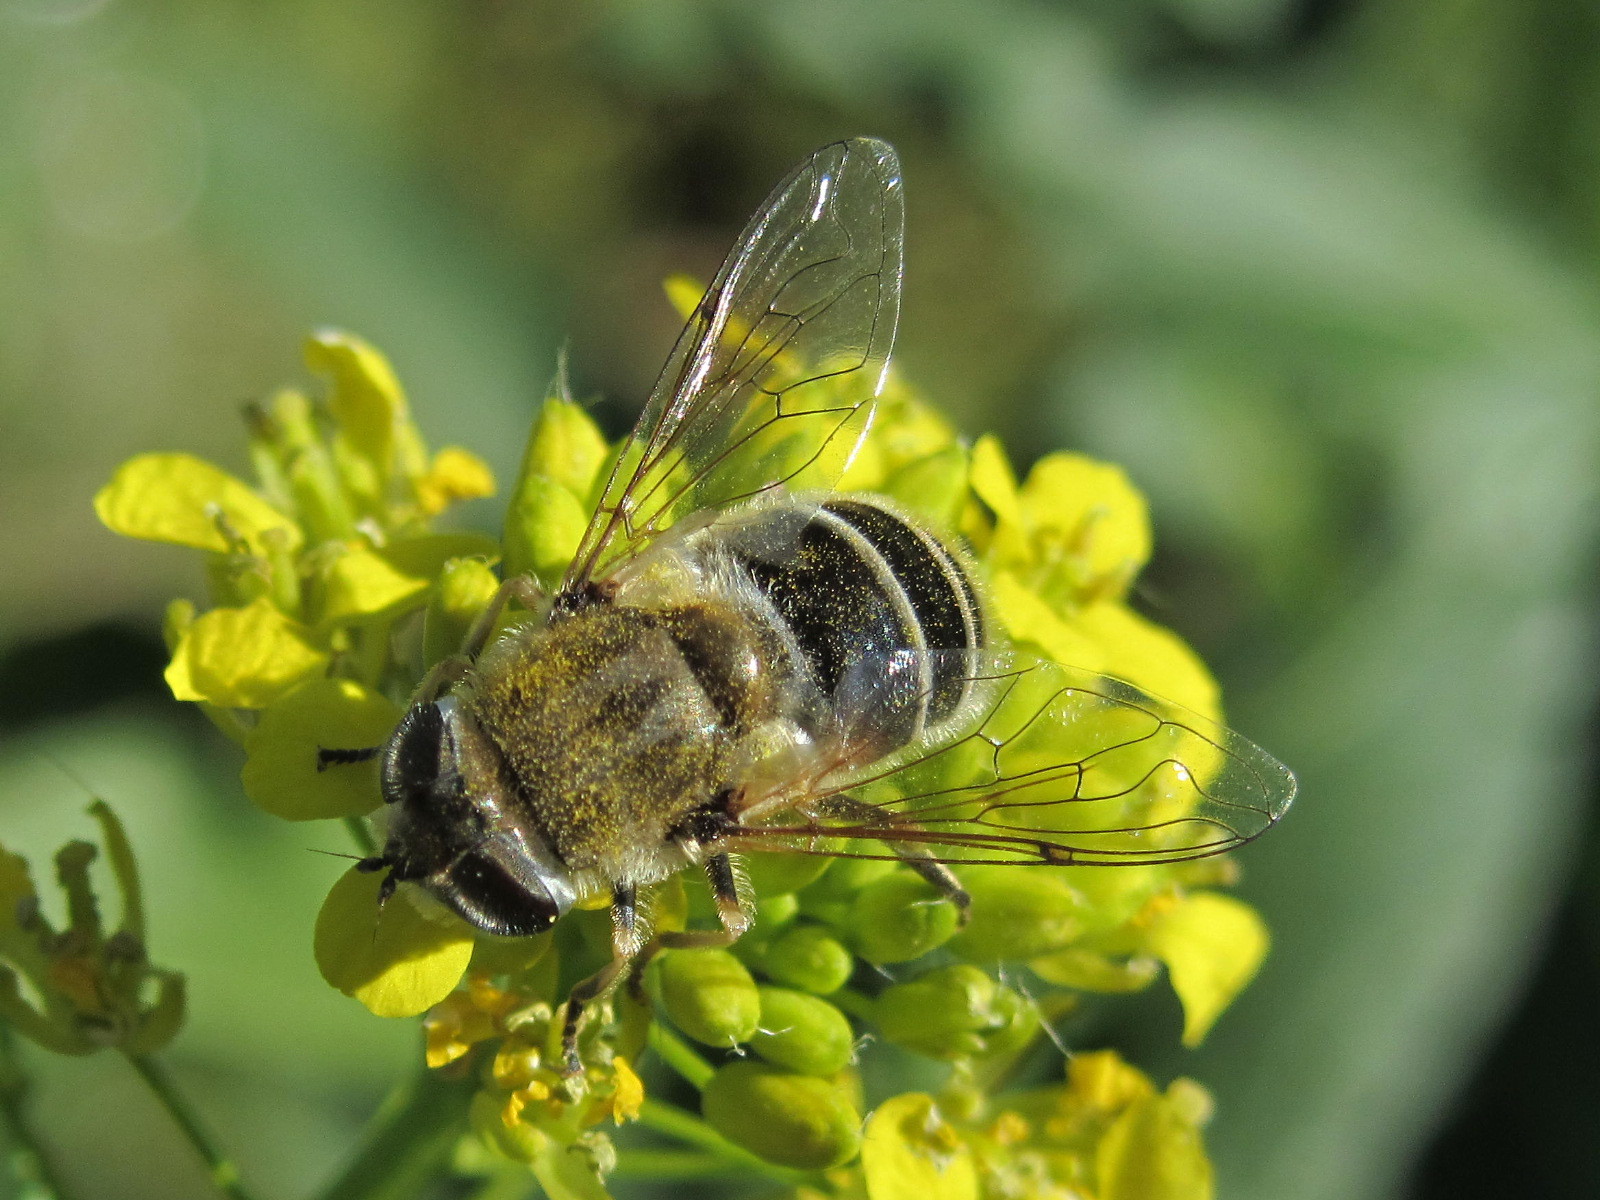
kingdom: Animalia
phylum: Arthropoda
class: Insecta
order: Diptera
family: Syrphidae
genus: Eristalis
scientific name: Eristalis arbustorum
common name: Hover fly
